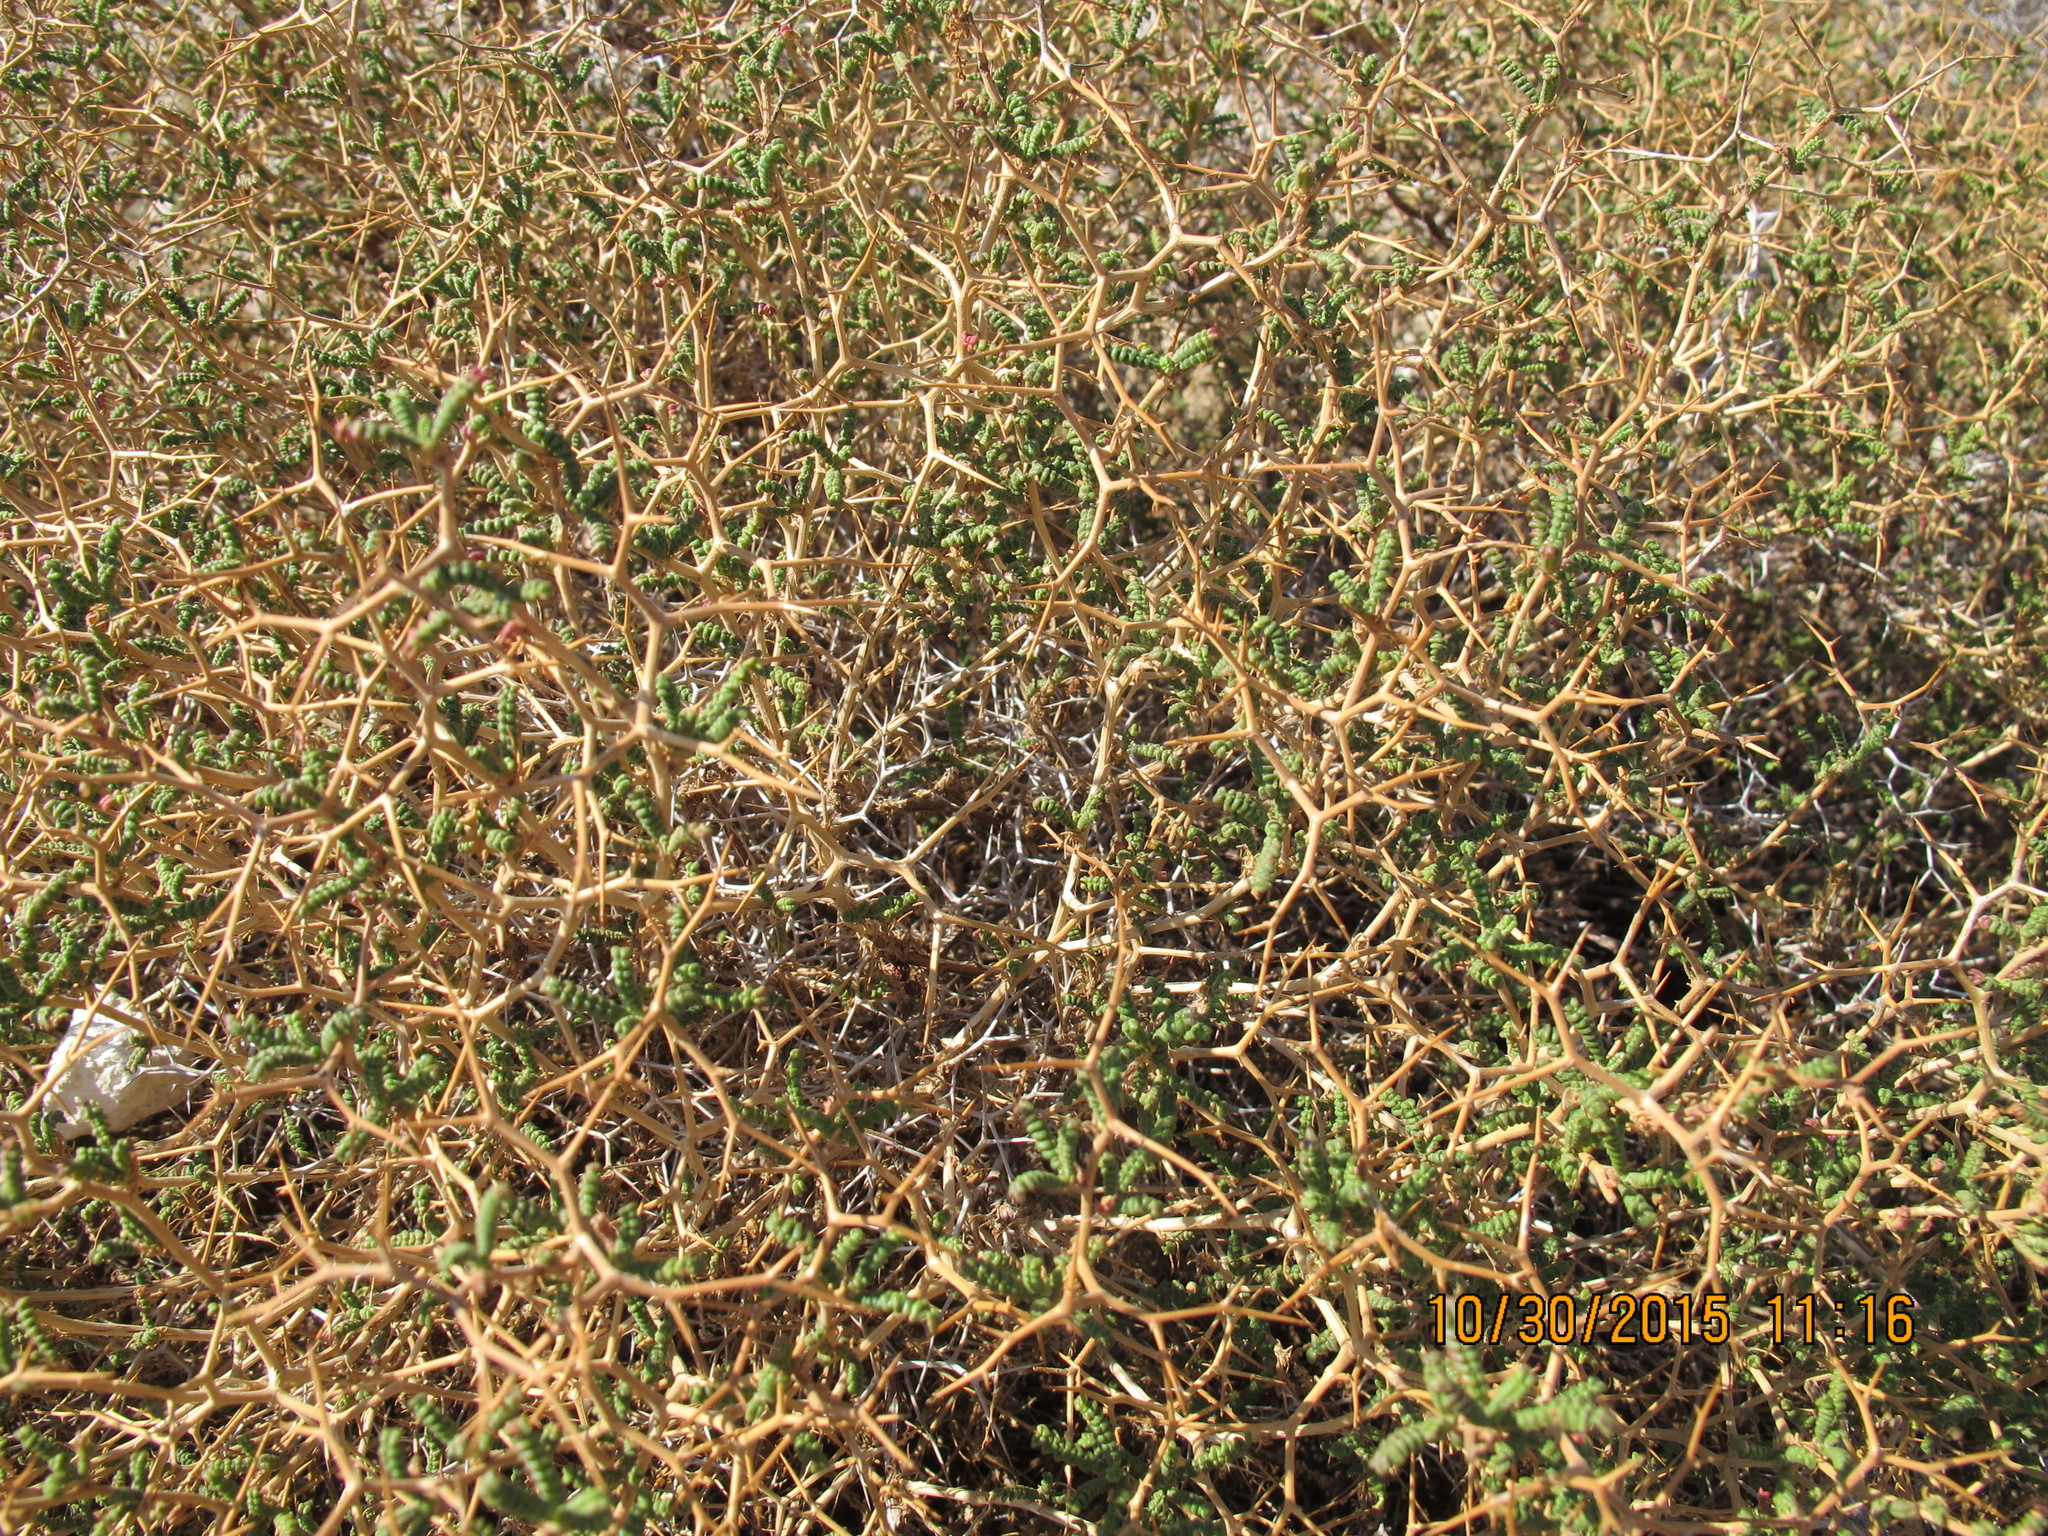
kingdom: Plantae
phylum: Tracheophyta
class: Magnoliopsida
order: Rosales
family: Rosaceae
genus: Sarcopoterium
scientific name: Sarcopoterium spinosum
